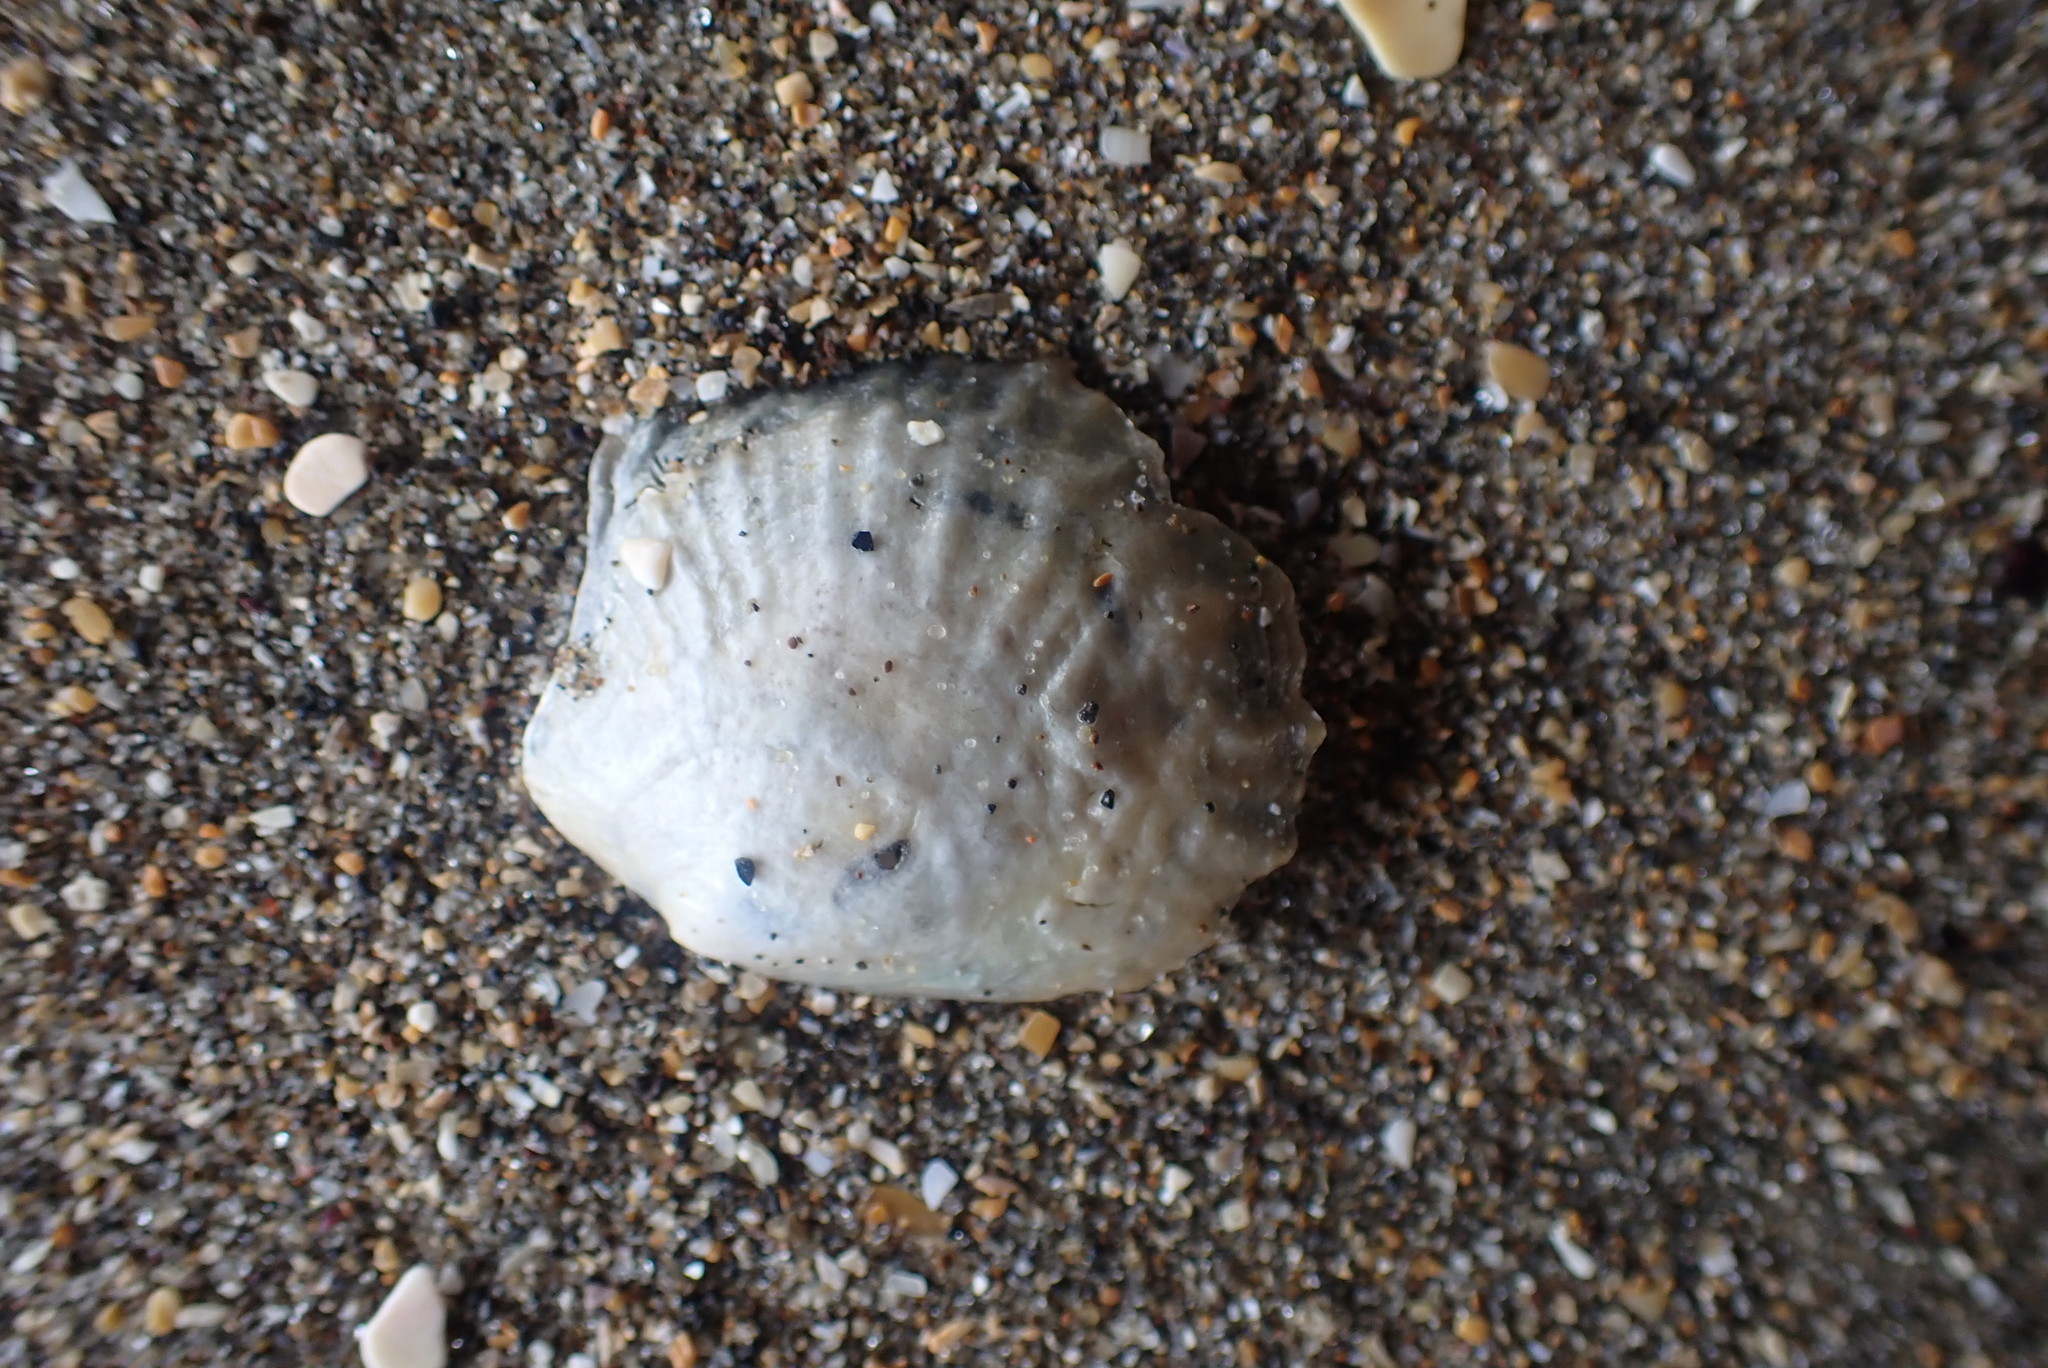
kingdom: Animalia
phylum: Mollusca
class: Bivalvia
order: Pectinida
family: Anomiidae
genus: Anomia
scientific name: Anomia trigonopsis
